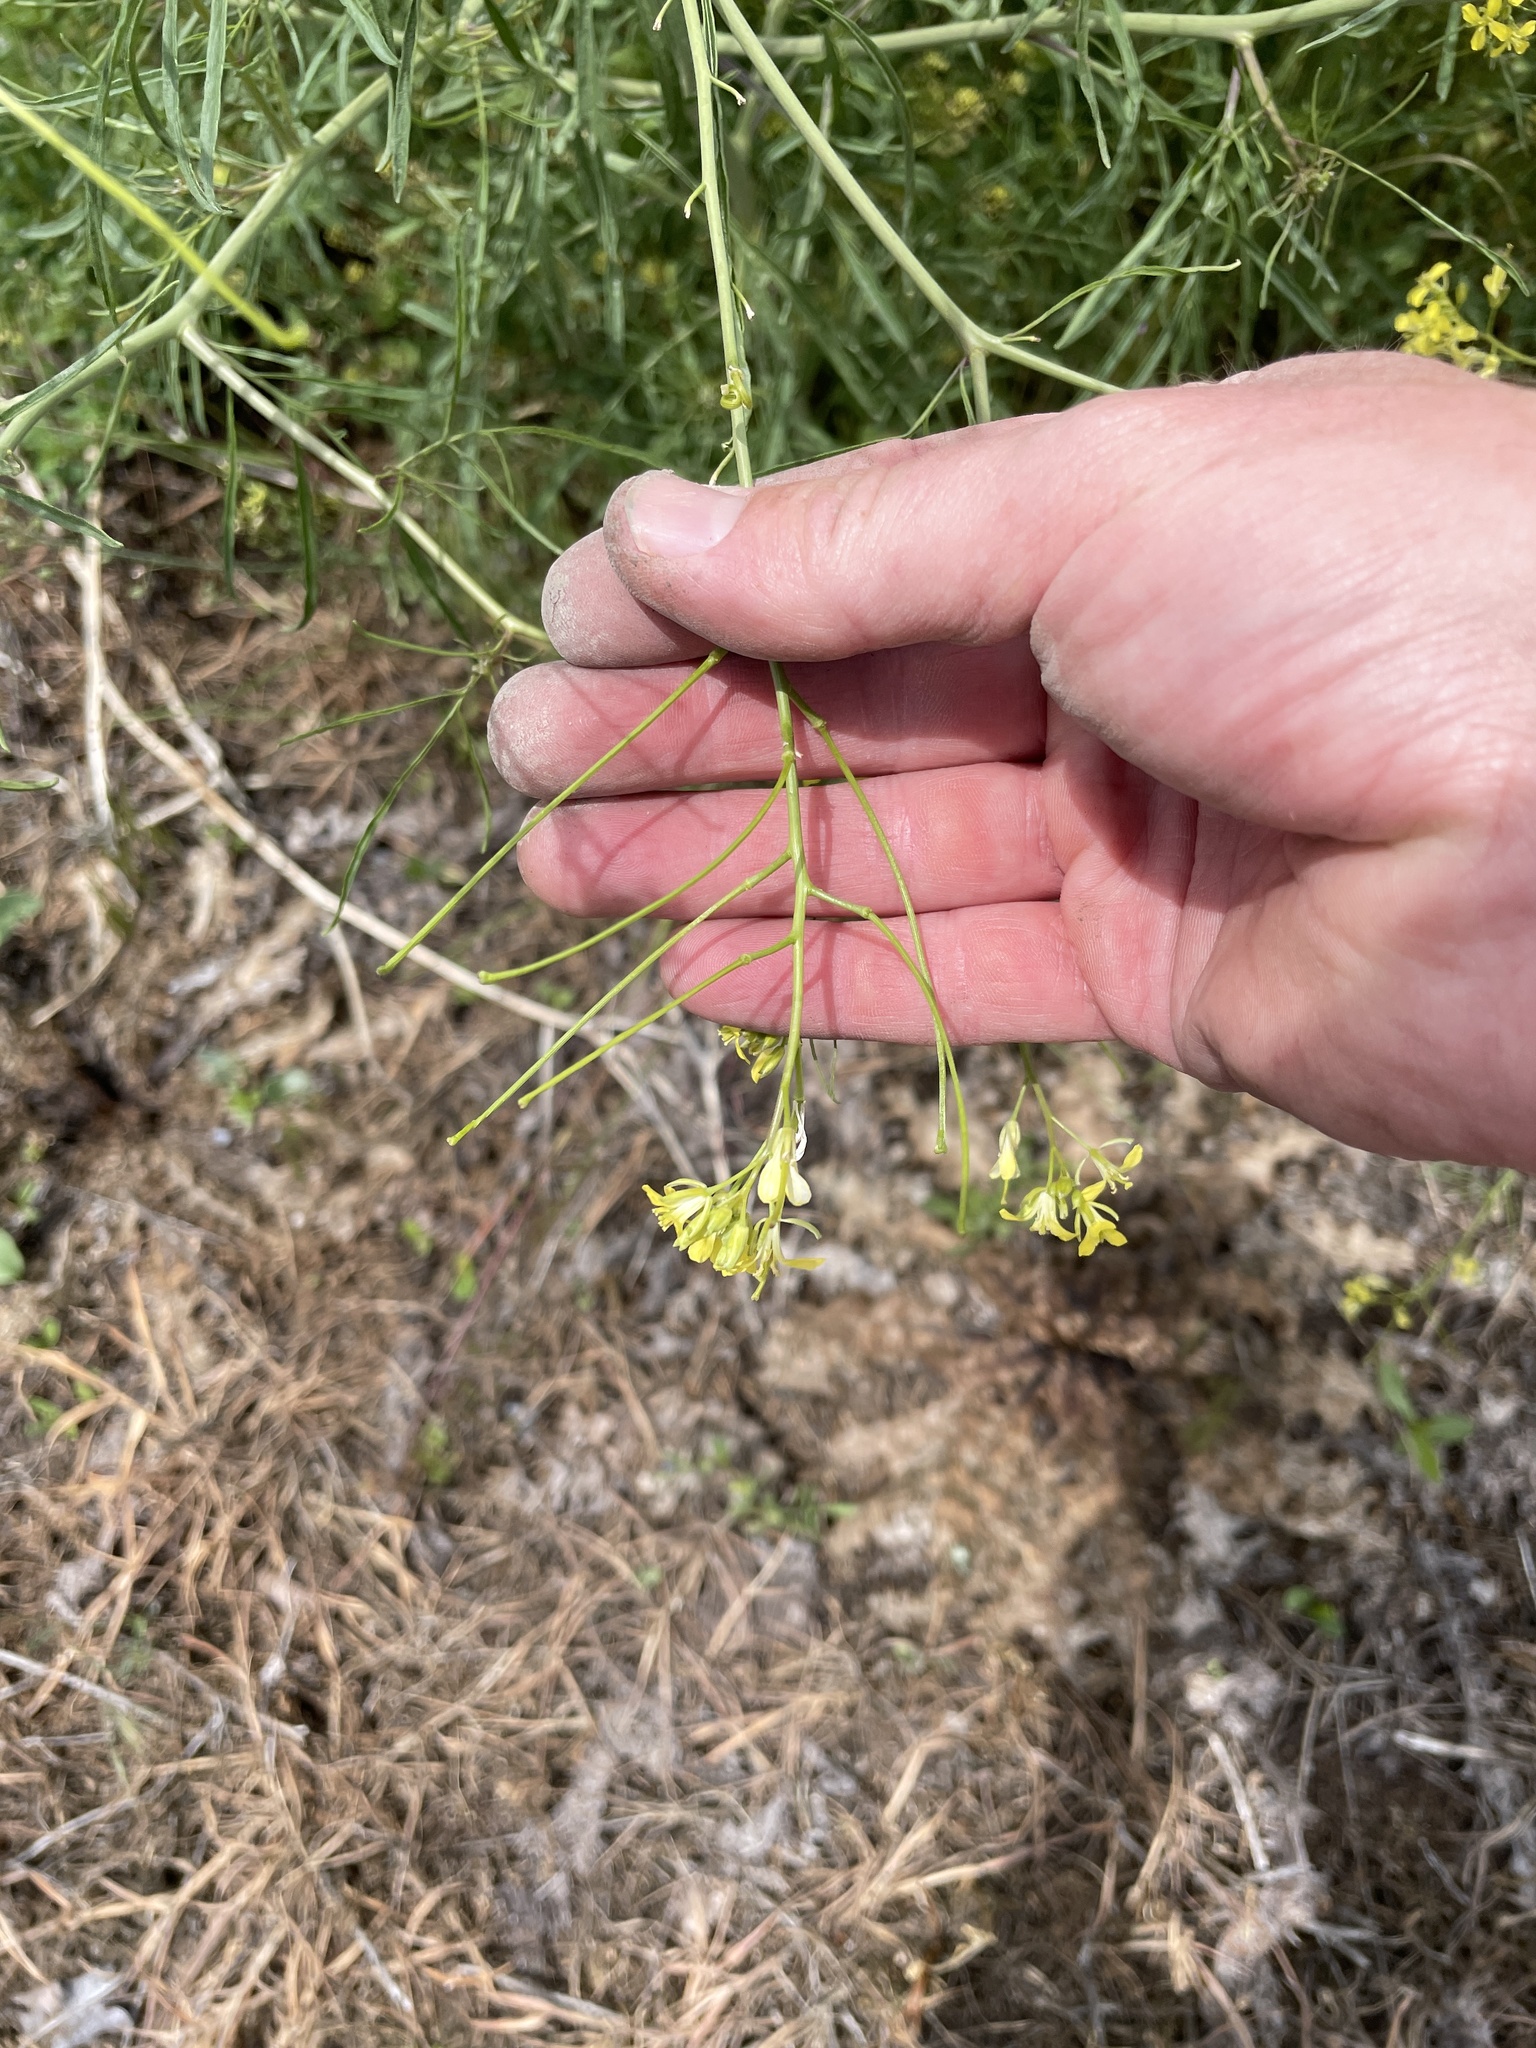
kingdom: Plantae
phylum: Tracheophyta
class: Magnoliopsida
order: Brassicales
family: Brassicaceae
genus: Sisymbrium
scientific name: Sisymbrium altissimum
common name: Tall rocket
